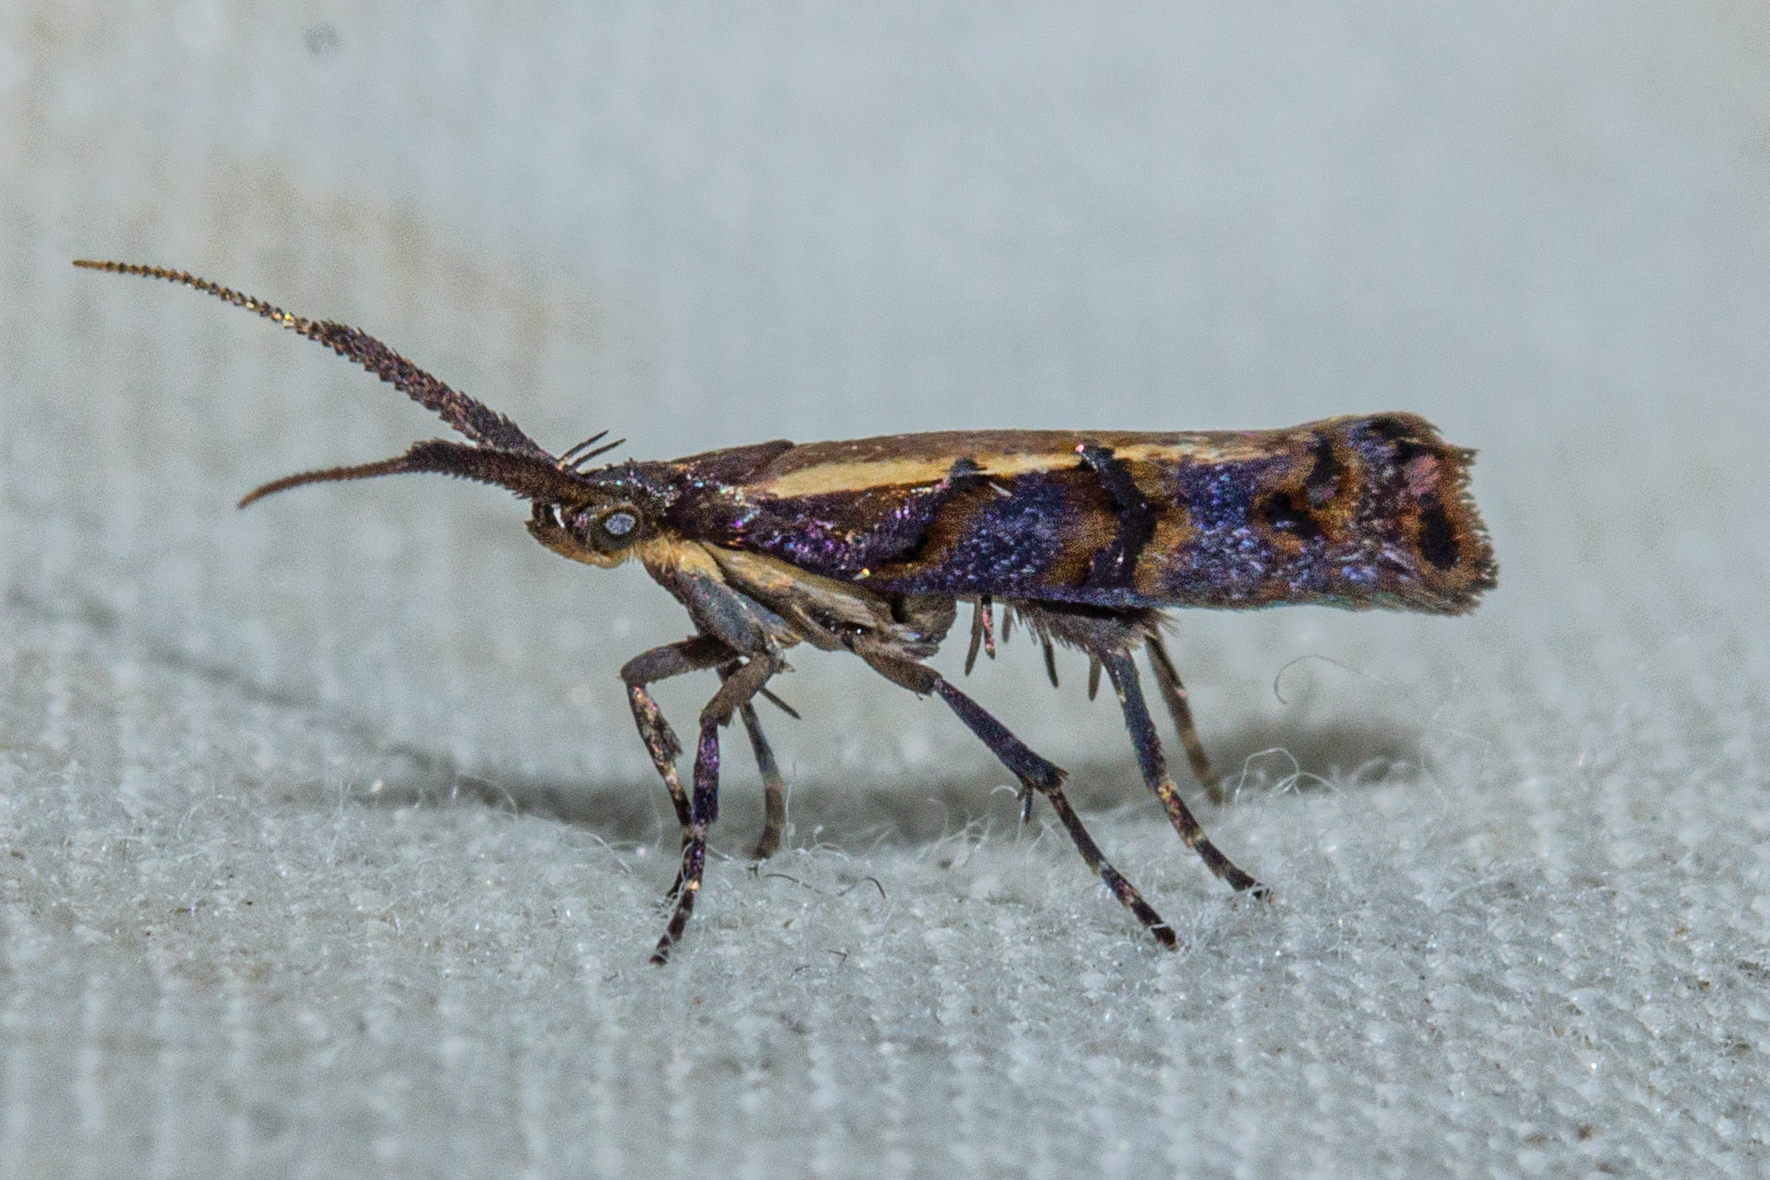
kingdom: Animalia
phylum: Arthropoda
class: Insecta
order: Lepidoptera
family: Plutellidae
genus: Protosynaema
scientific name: Protosynaema quaestuosa
